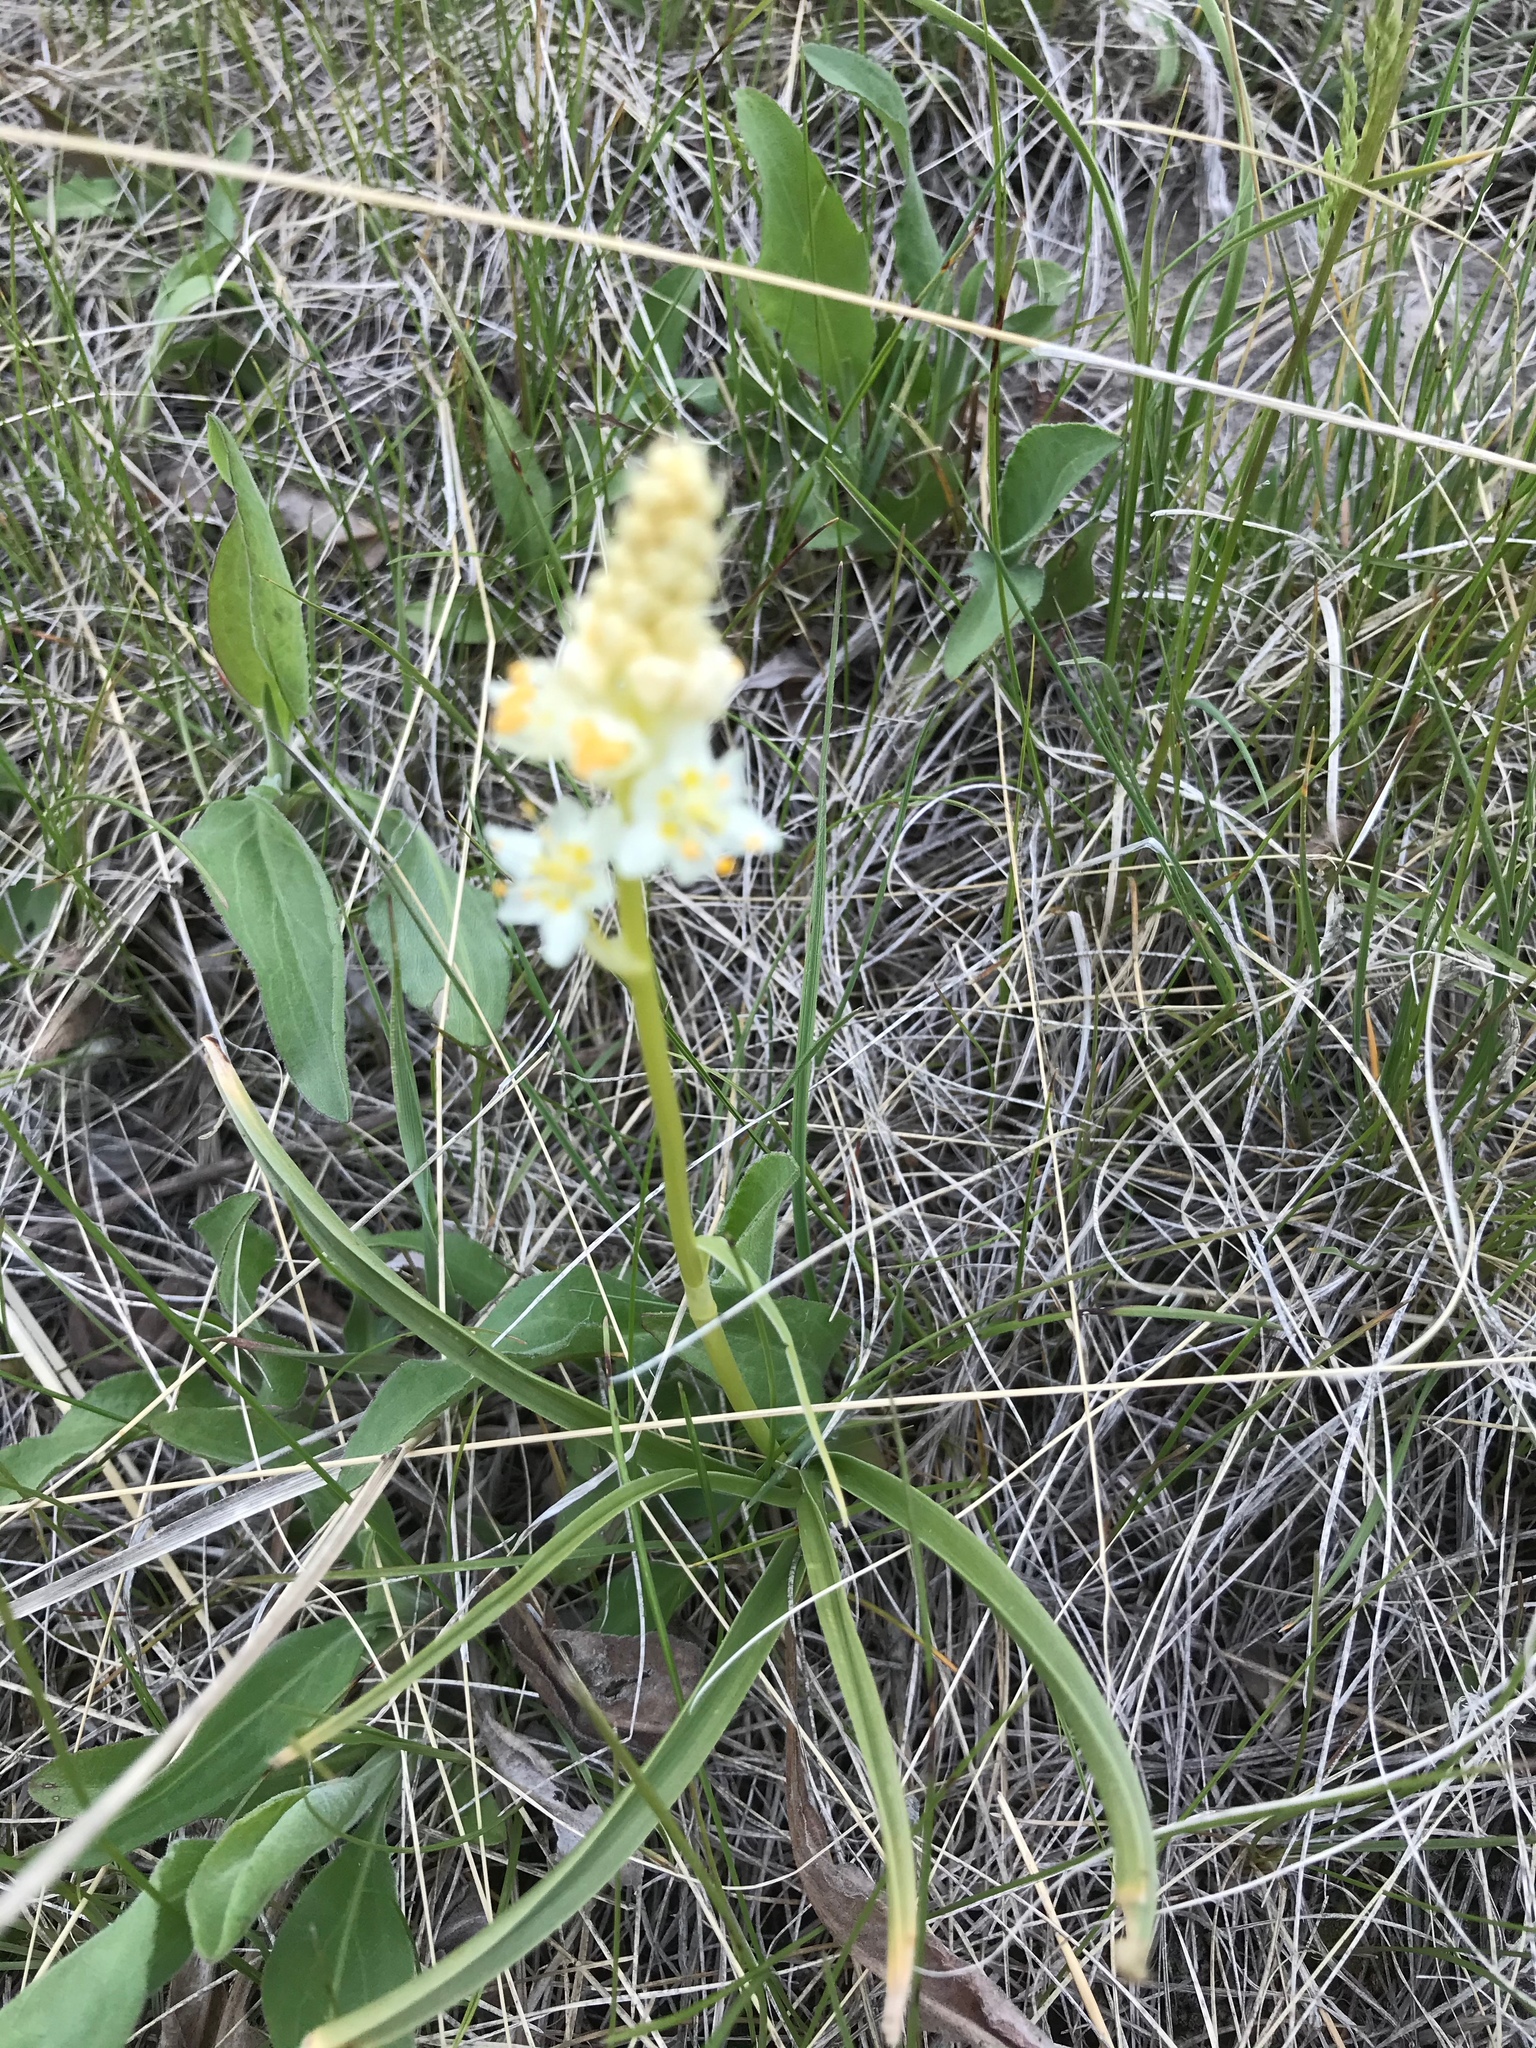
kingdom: Plantae
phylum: Tracheophyta
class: Liliopsida
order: Liliales
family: Melanthiaceae
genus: Toxicoscordion
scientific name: Toxicoscordion venenosum
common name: Meadow death camas
